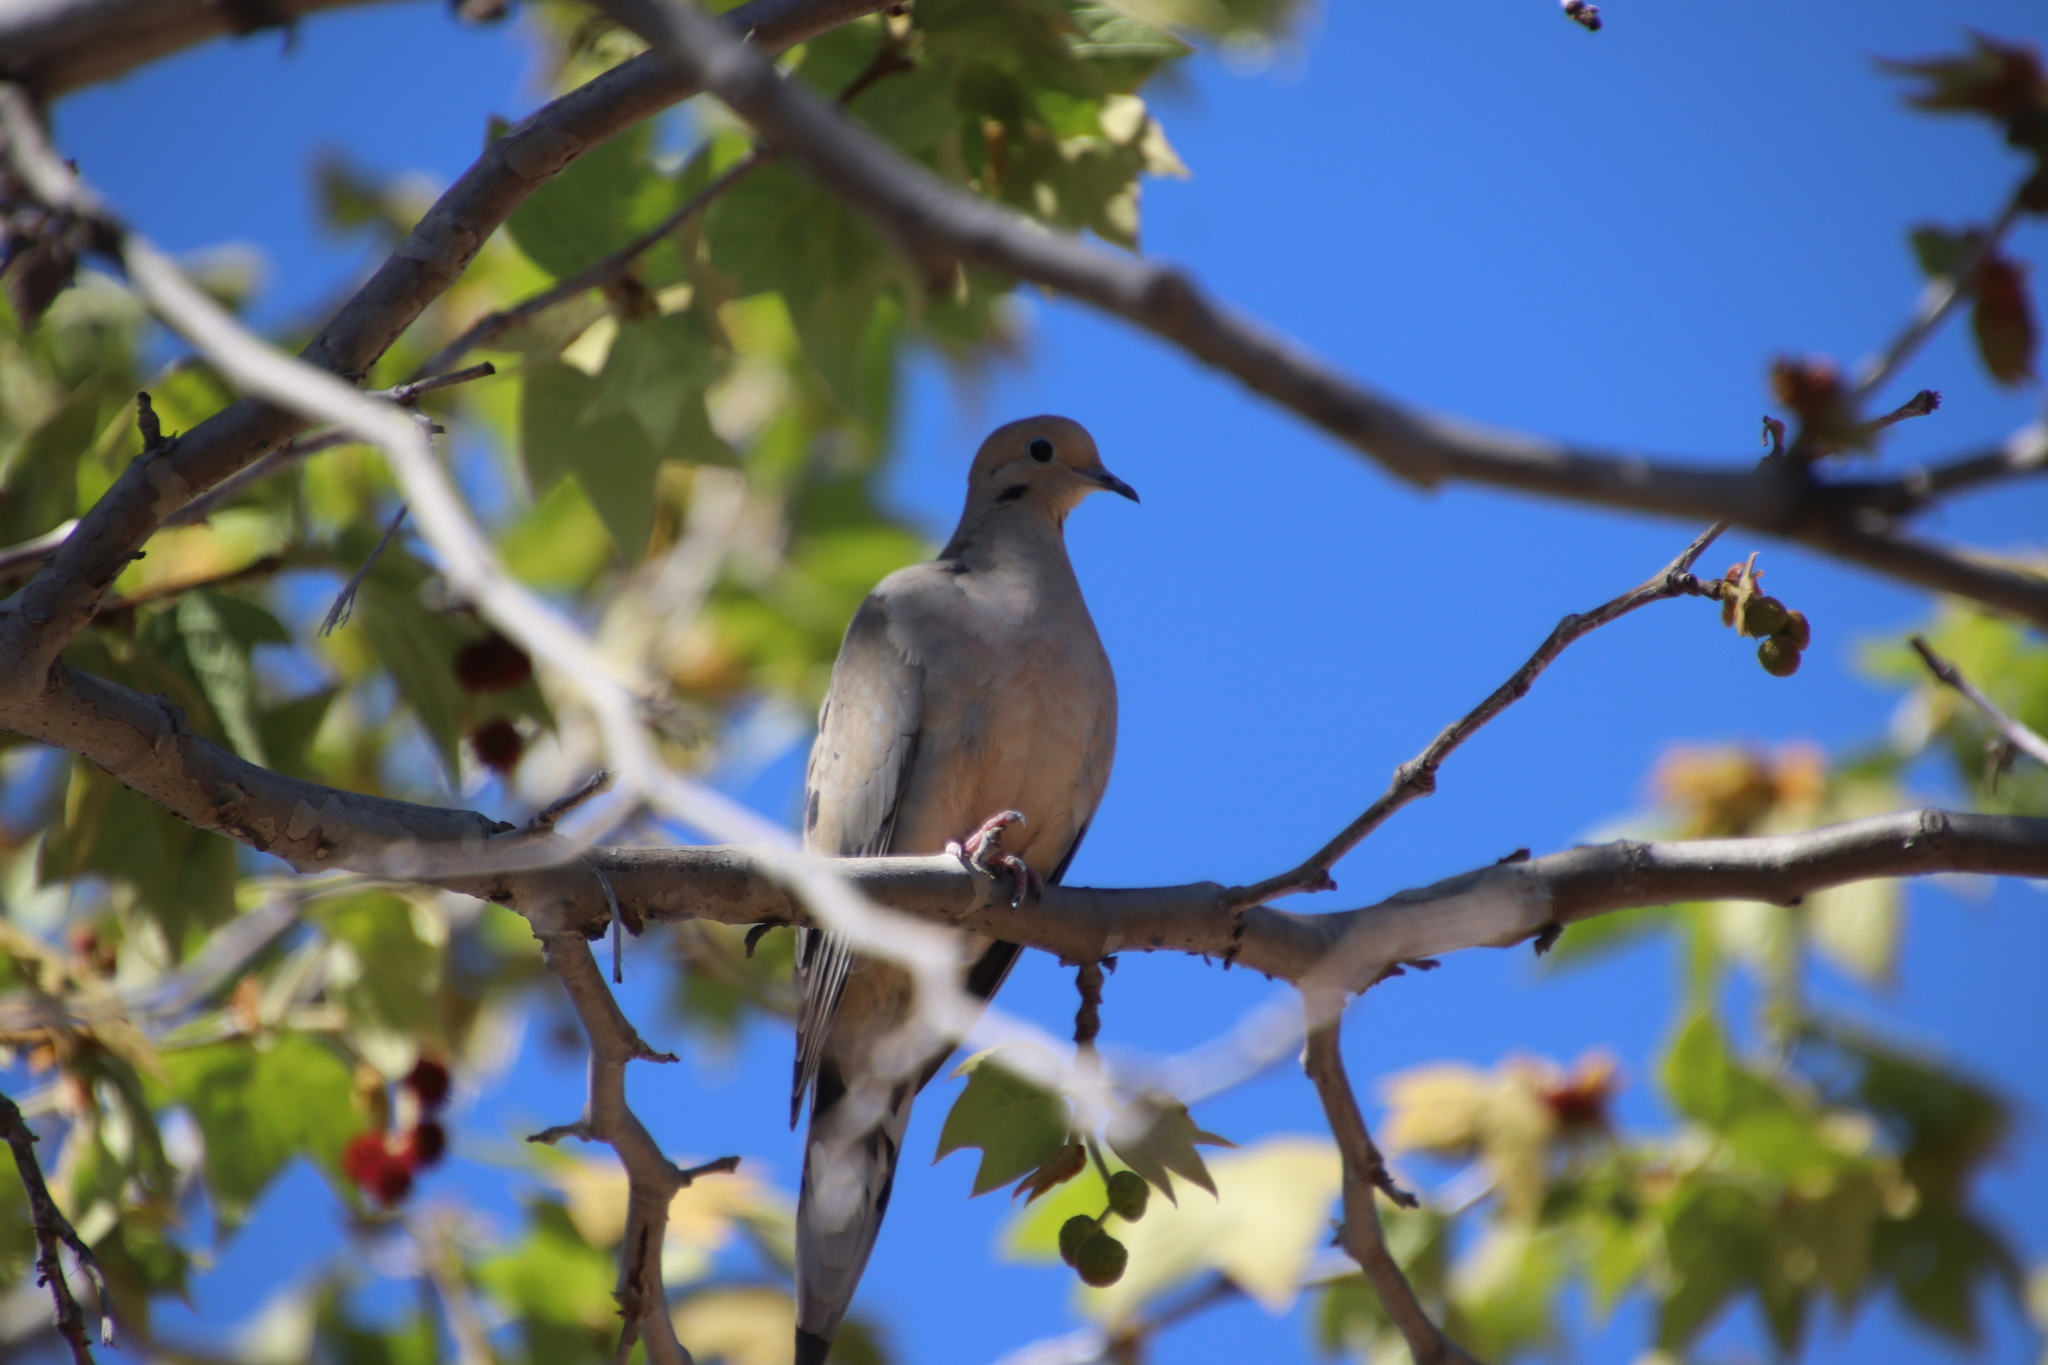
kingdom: Animalia
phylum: Chordata
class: Aves
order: Columbiformes
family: Columbidae
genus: Zenaida
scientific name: Zenaida macroura
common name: Mourning dove
